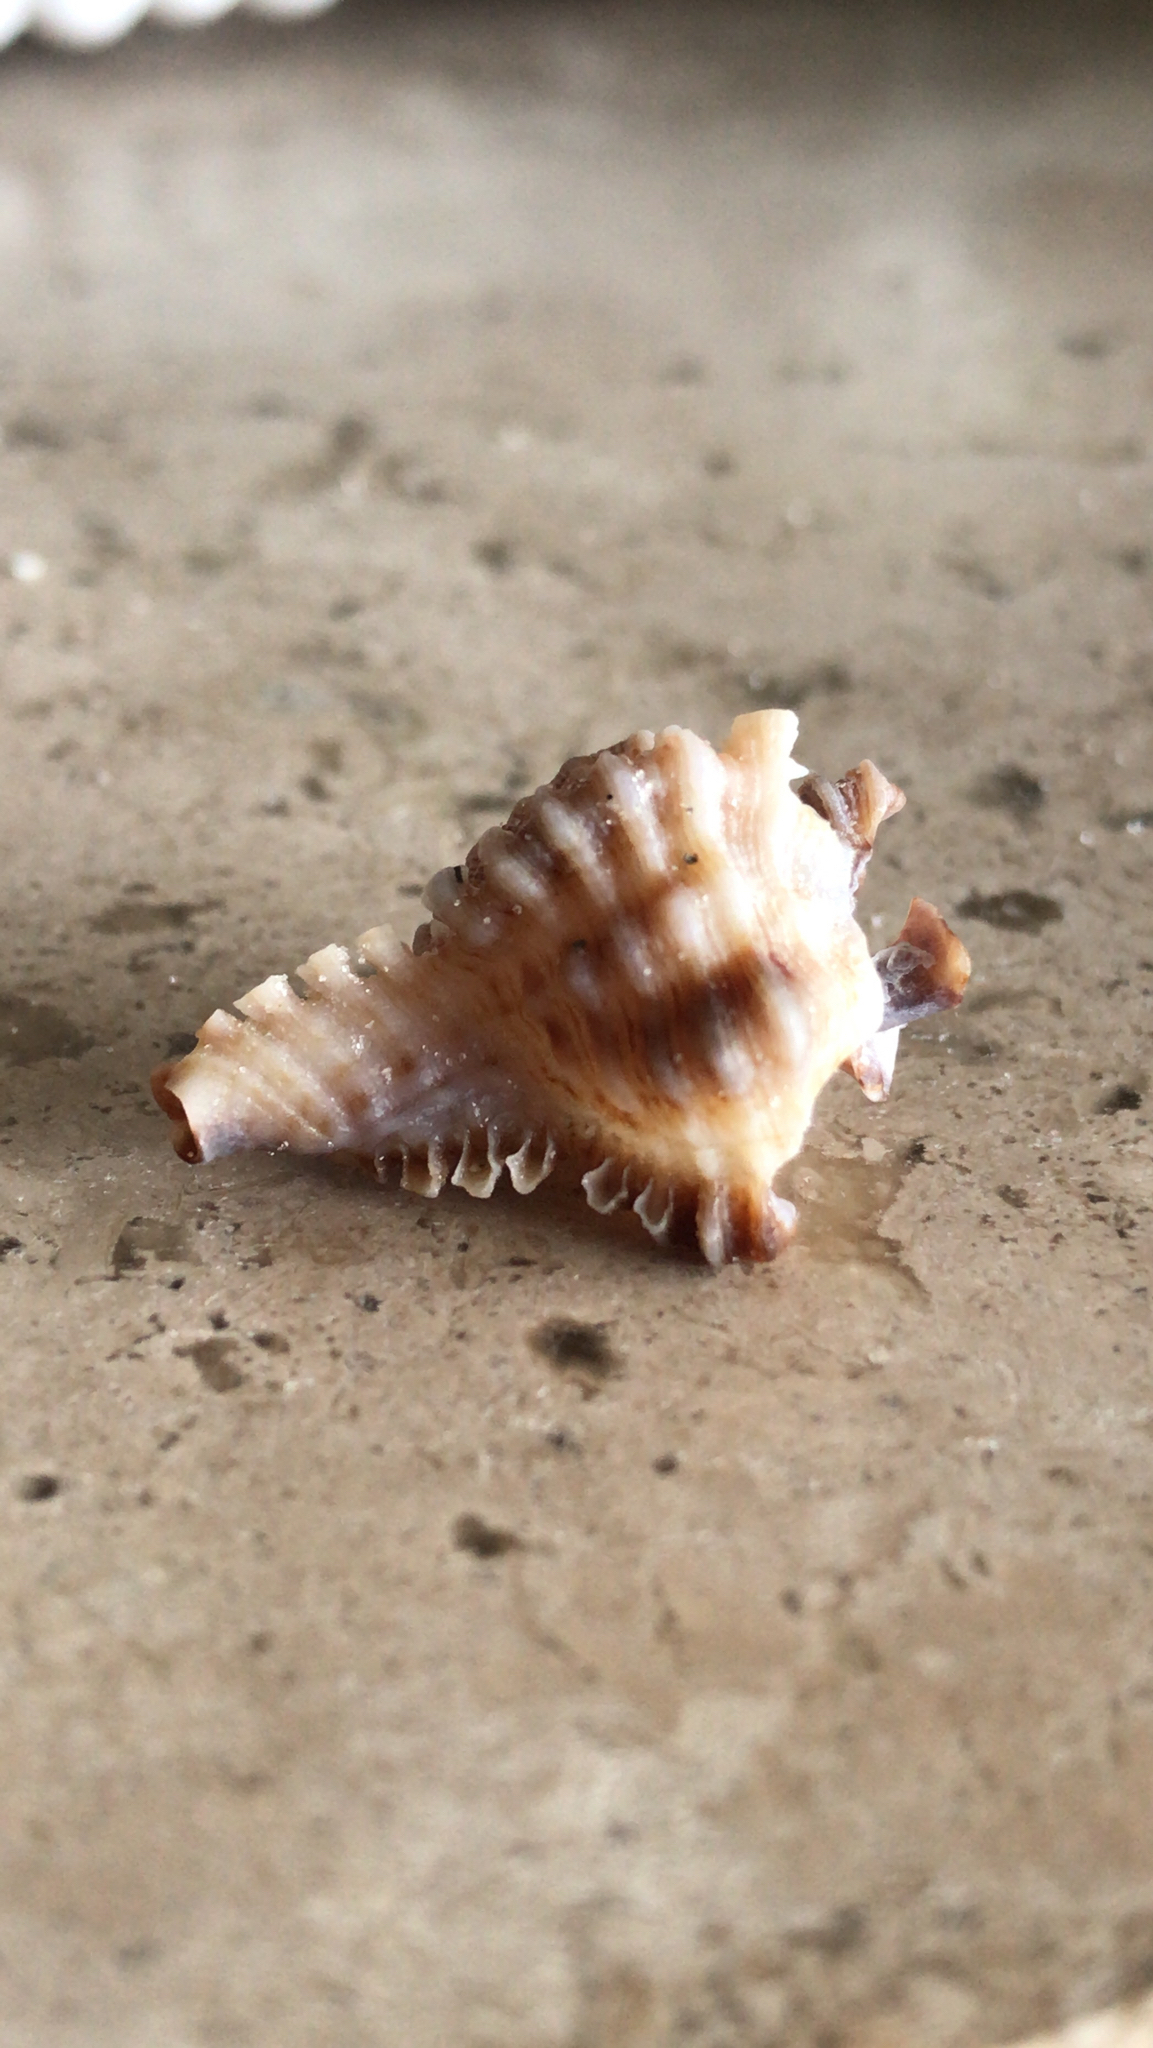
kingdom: Animalia
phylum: Mollusca
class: Gastropoda
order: Neogastropoda
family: Muricidae
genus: Chicoreus
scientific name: Chicoreus florifer
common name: Flowery lace murex
